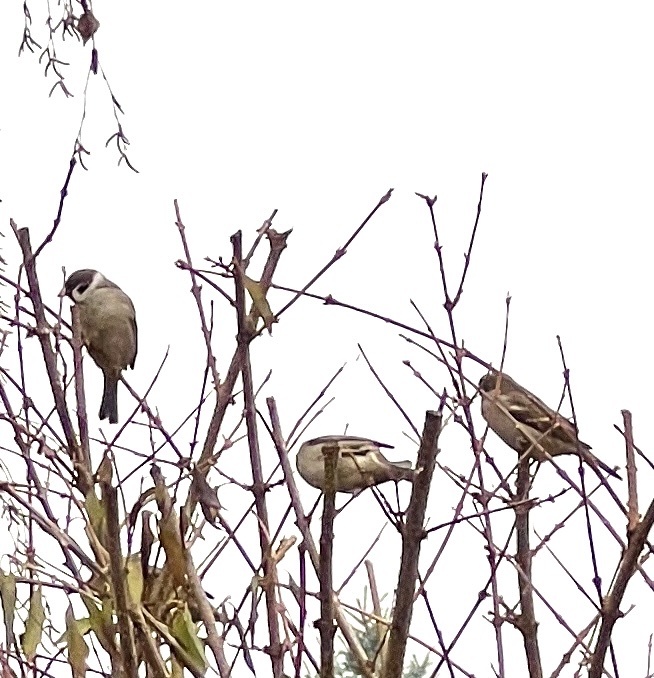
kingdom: Animalia
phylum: Chordata
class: Aves
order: Passeriformes
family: Passeridae
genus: Passer
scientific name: Passer montanus
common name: Eurasian tree sparrow
